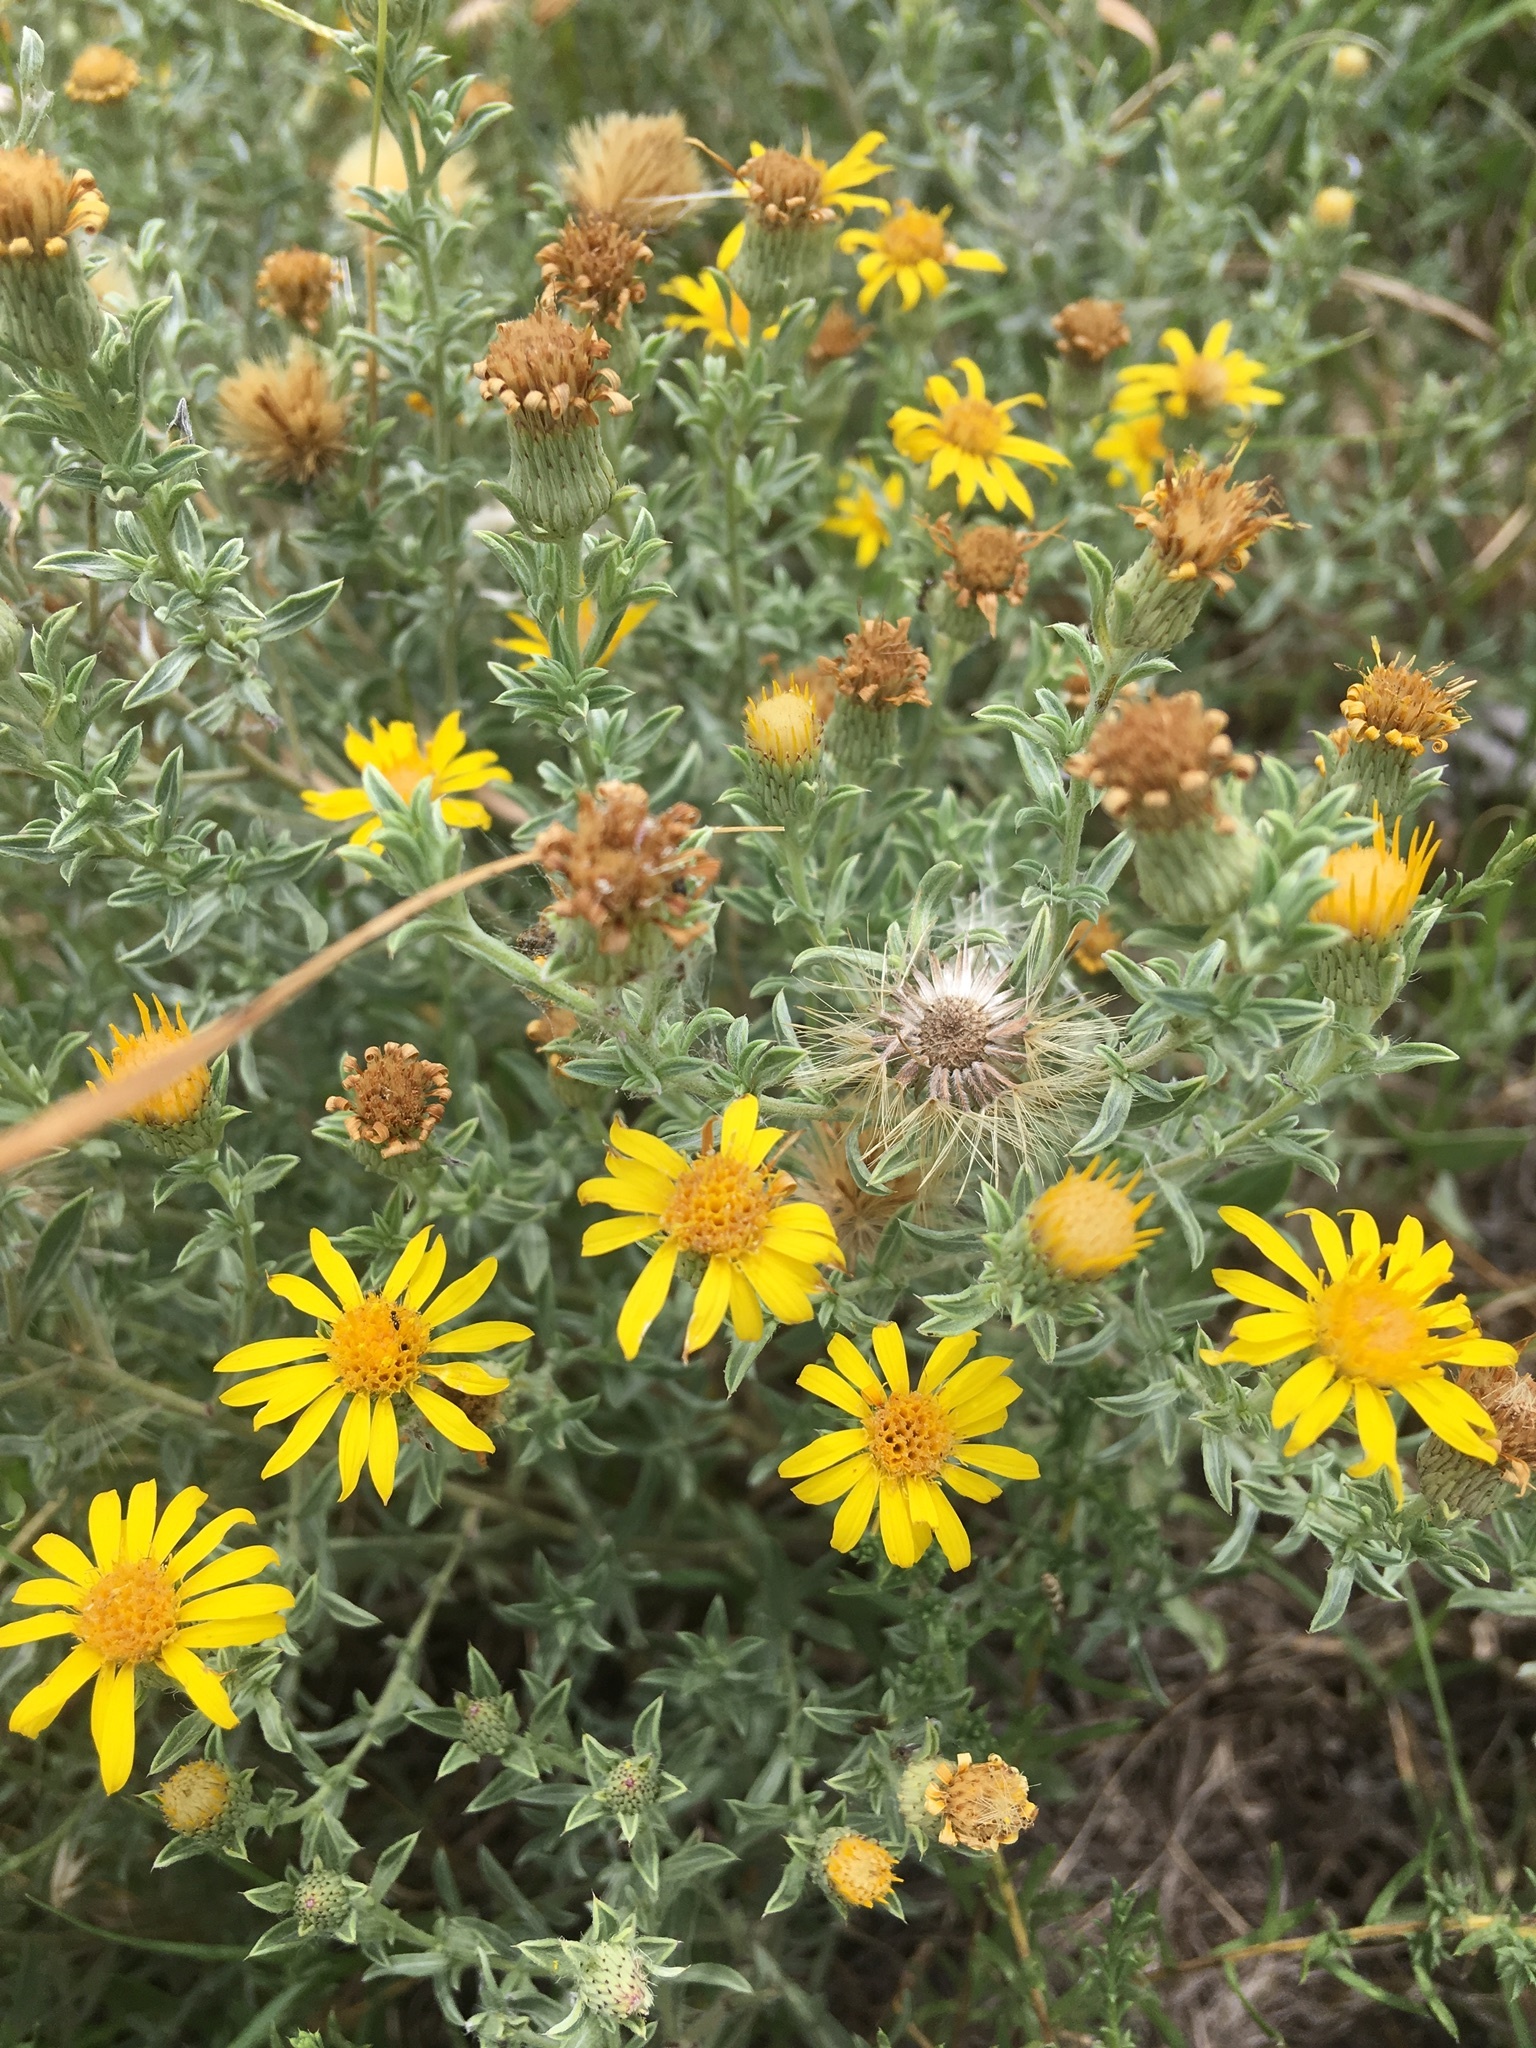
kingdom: Plantae
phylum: Tracheophyta
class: Magnoliopsida
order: Asterales
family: Asteraceae
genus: Heterotheca
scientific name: Heterotheca canescens
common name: Hoary golden-aster
